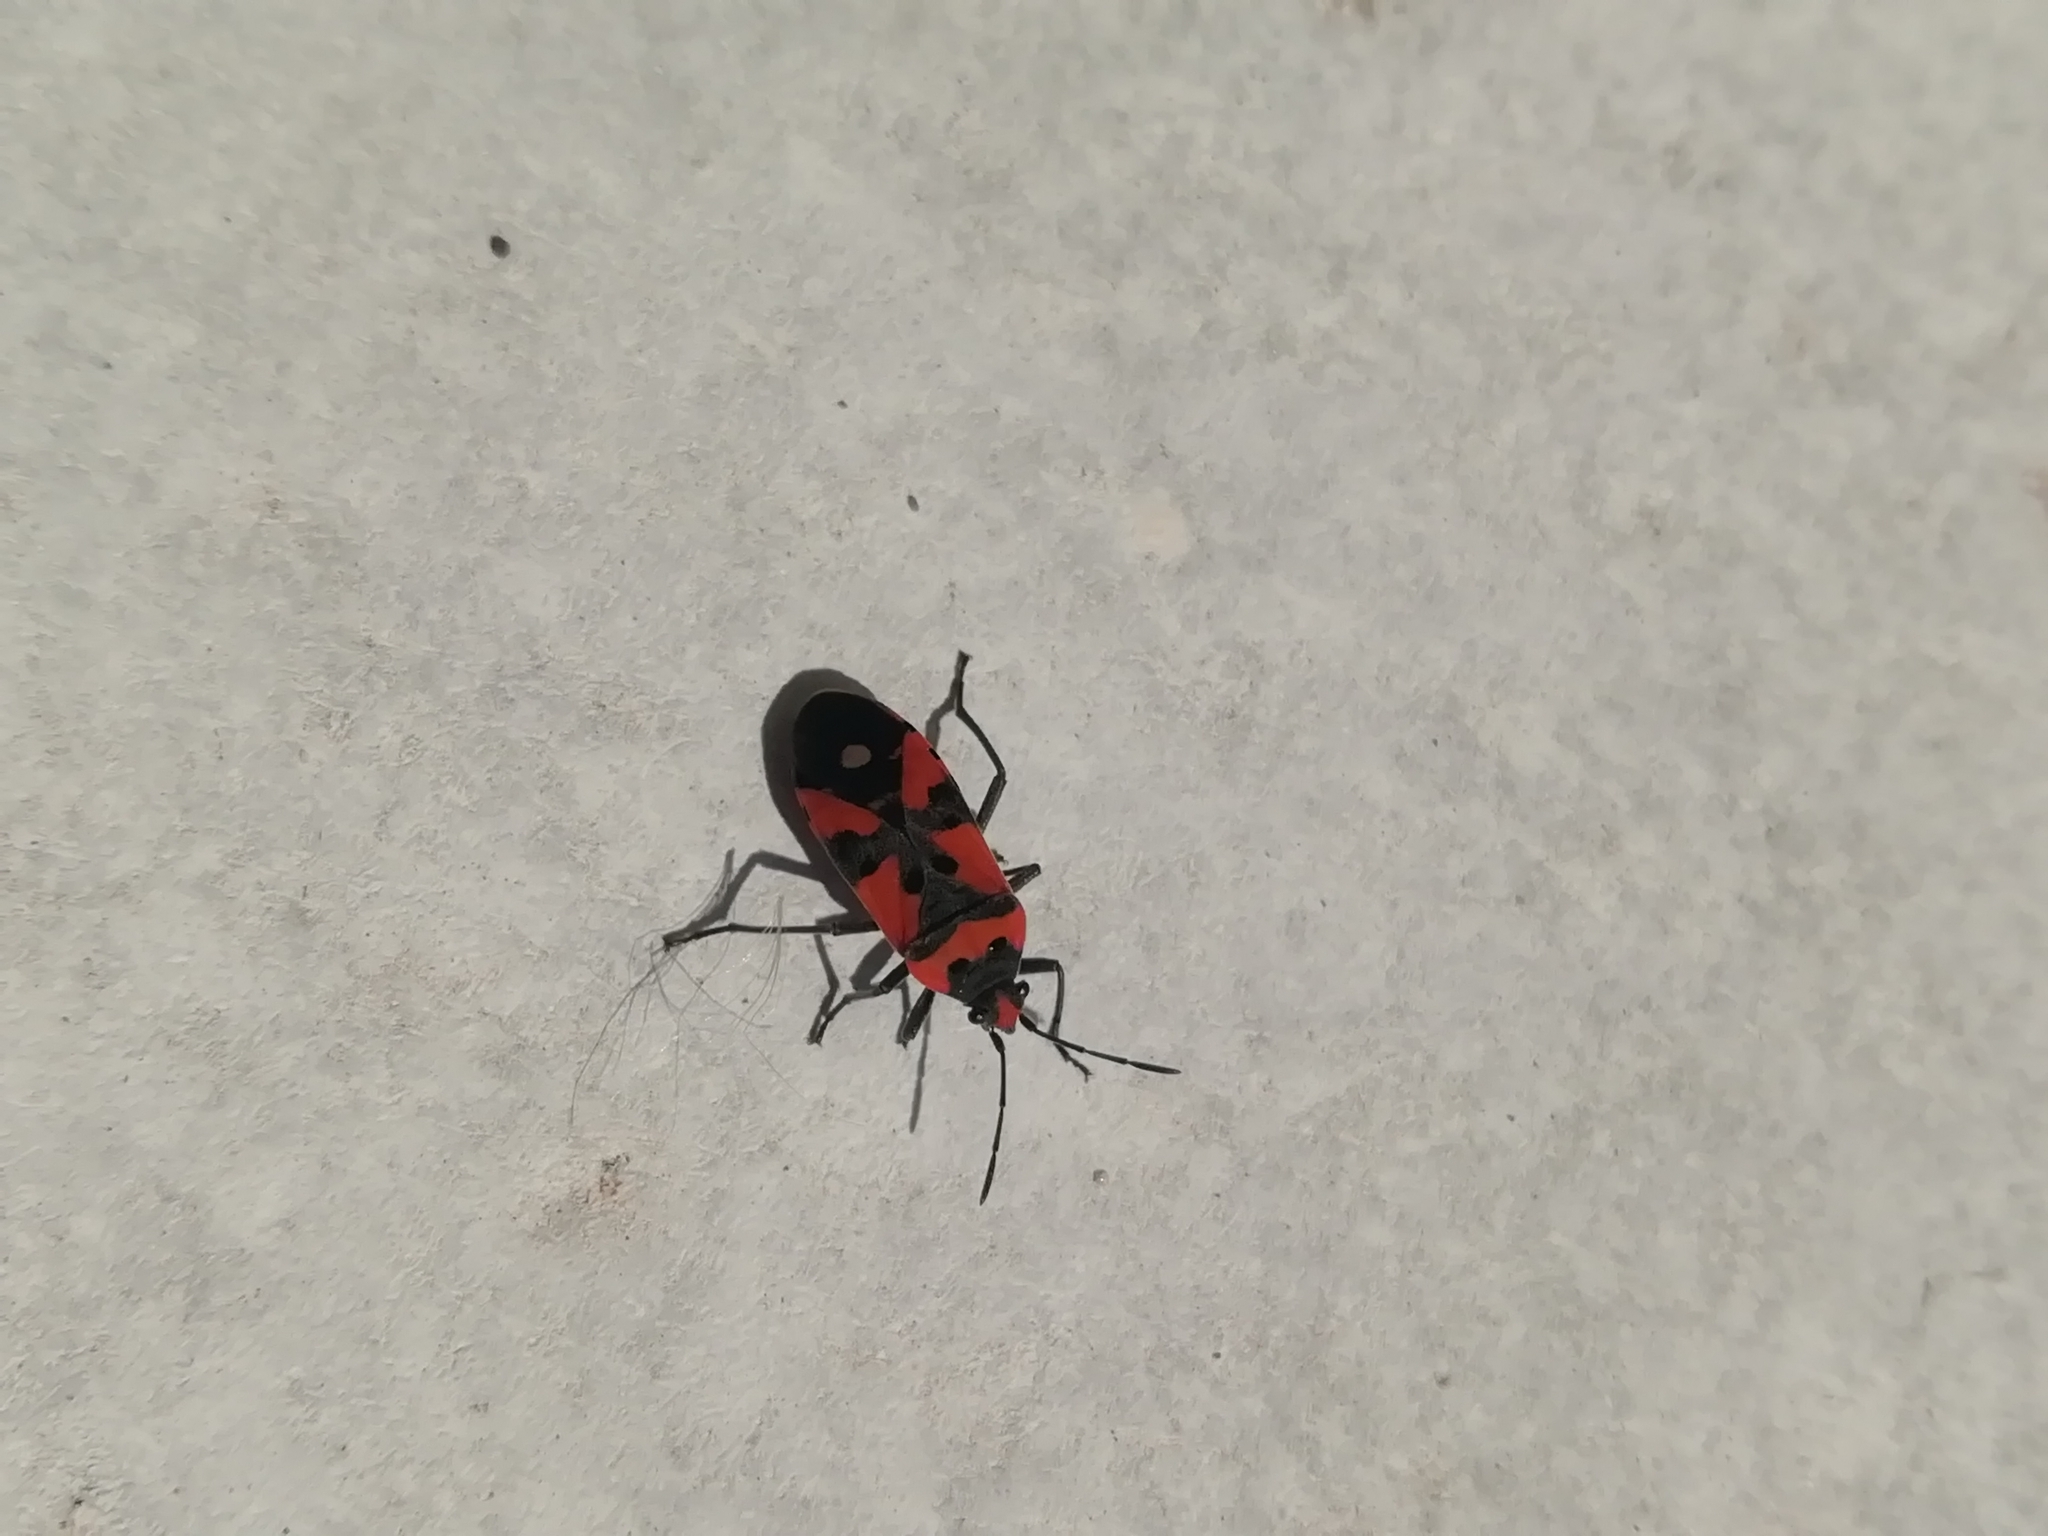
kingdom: Animalia
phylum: Arthropoda
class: Insecta
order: Hemiptera
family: Lygaeidae
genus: Lygaeus
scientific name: Lygaeus equestris
